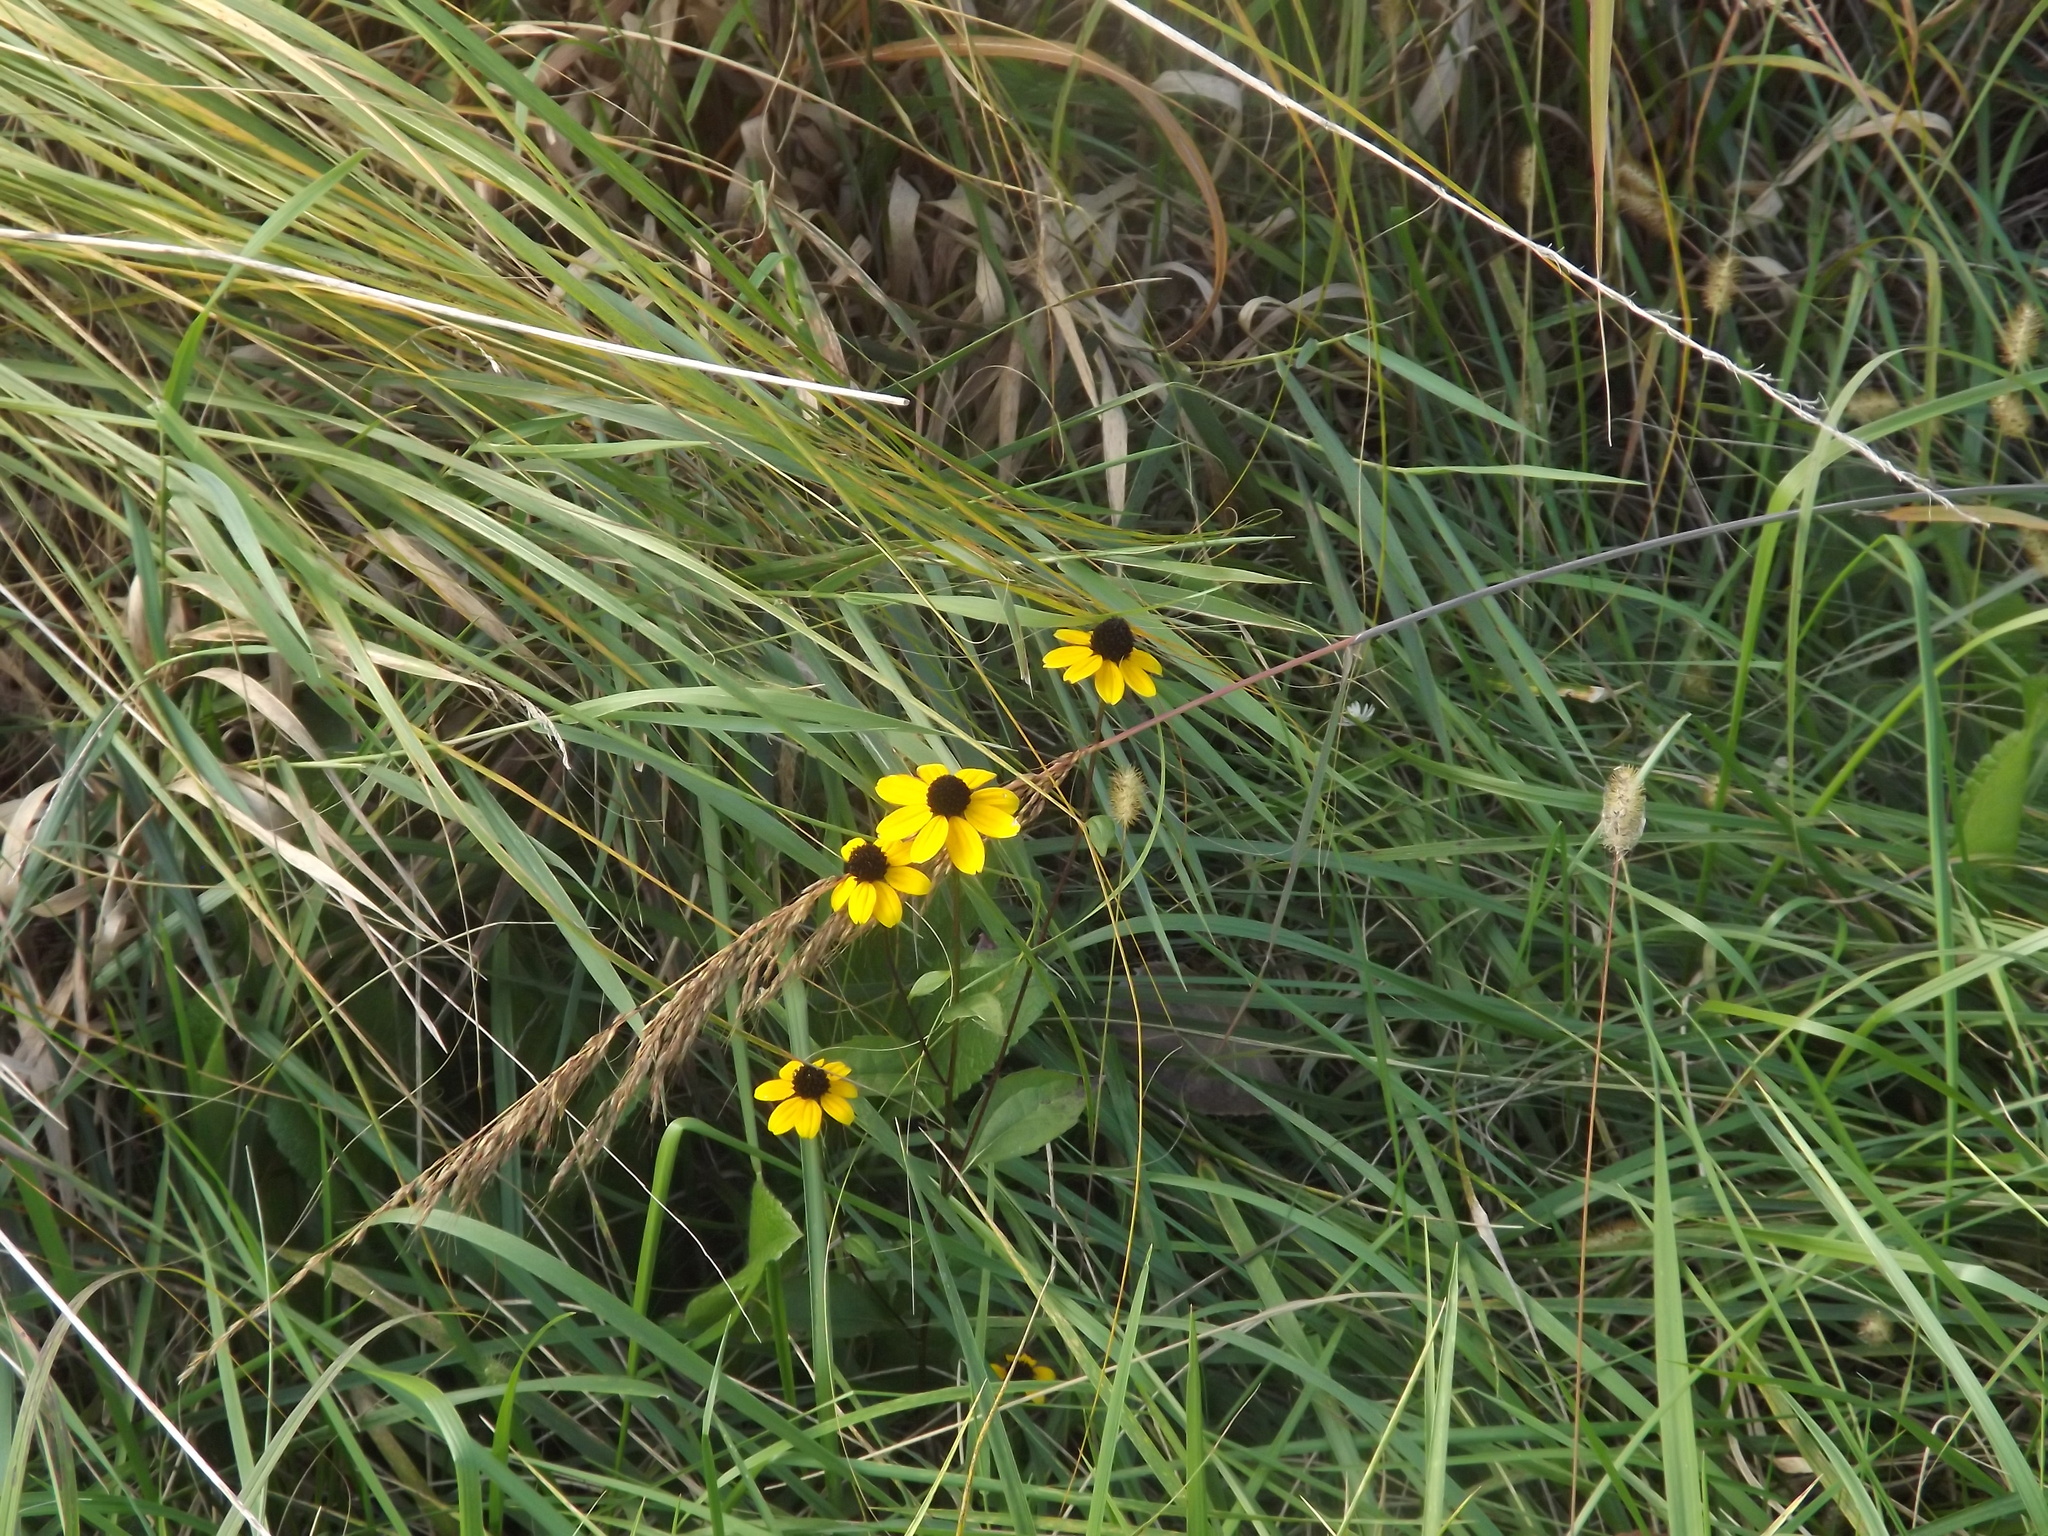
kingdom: Plantae
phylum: Tracheophyta
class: Magnoliopsida
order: Asterales
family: Asteraceae
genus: Rudbeckia
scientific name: Rudbeckia triloba
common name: Thin-leaved coneflower
